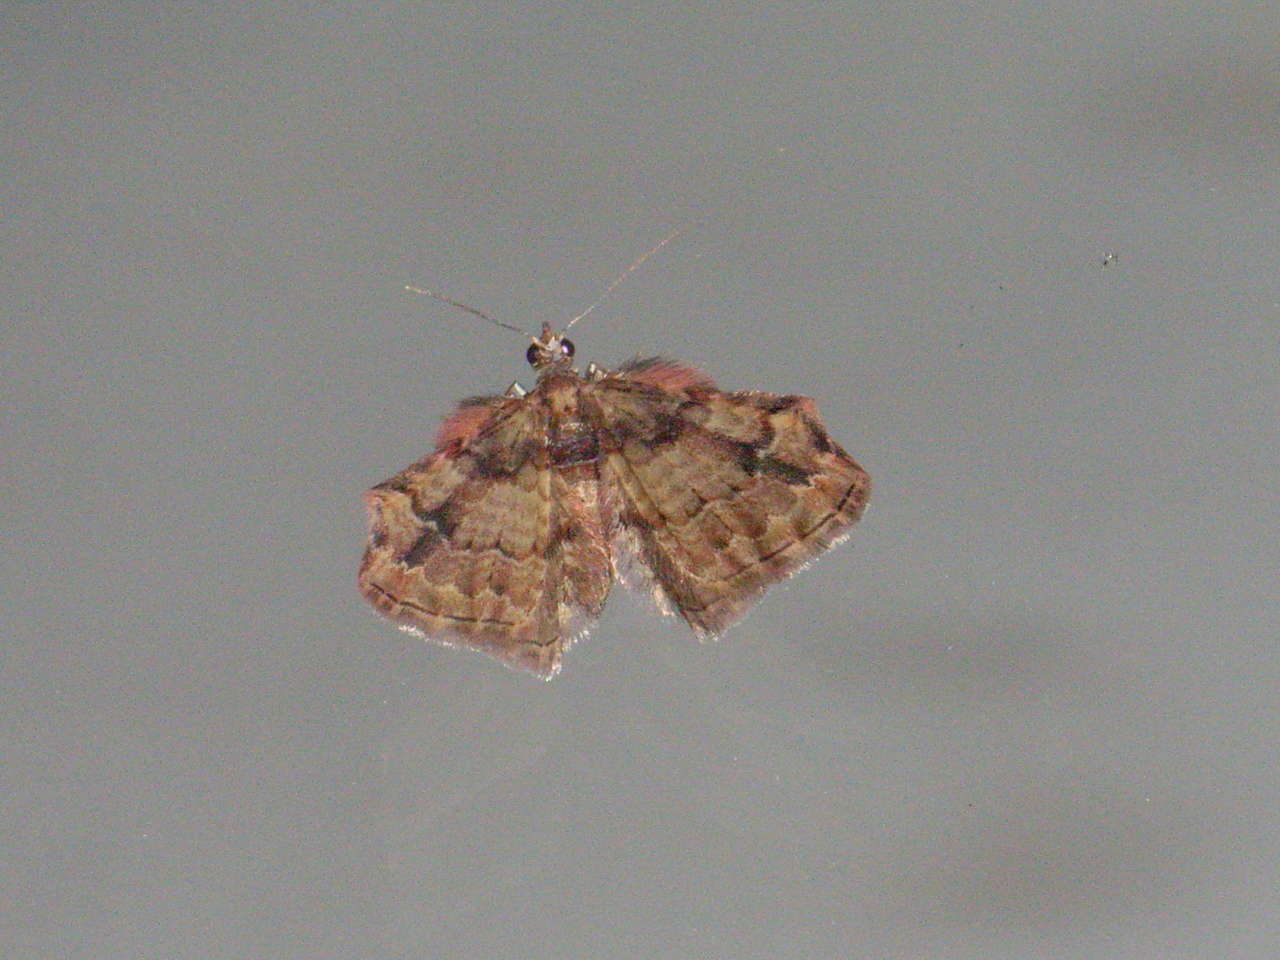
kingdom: Animalia
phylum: Arthropoda
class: Insecta
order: Lepidoptera
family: Geometridae
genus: Chloroclystis
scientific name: Chloroclystis approximata
